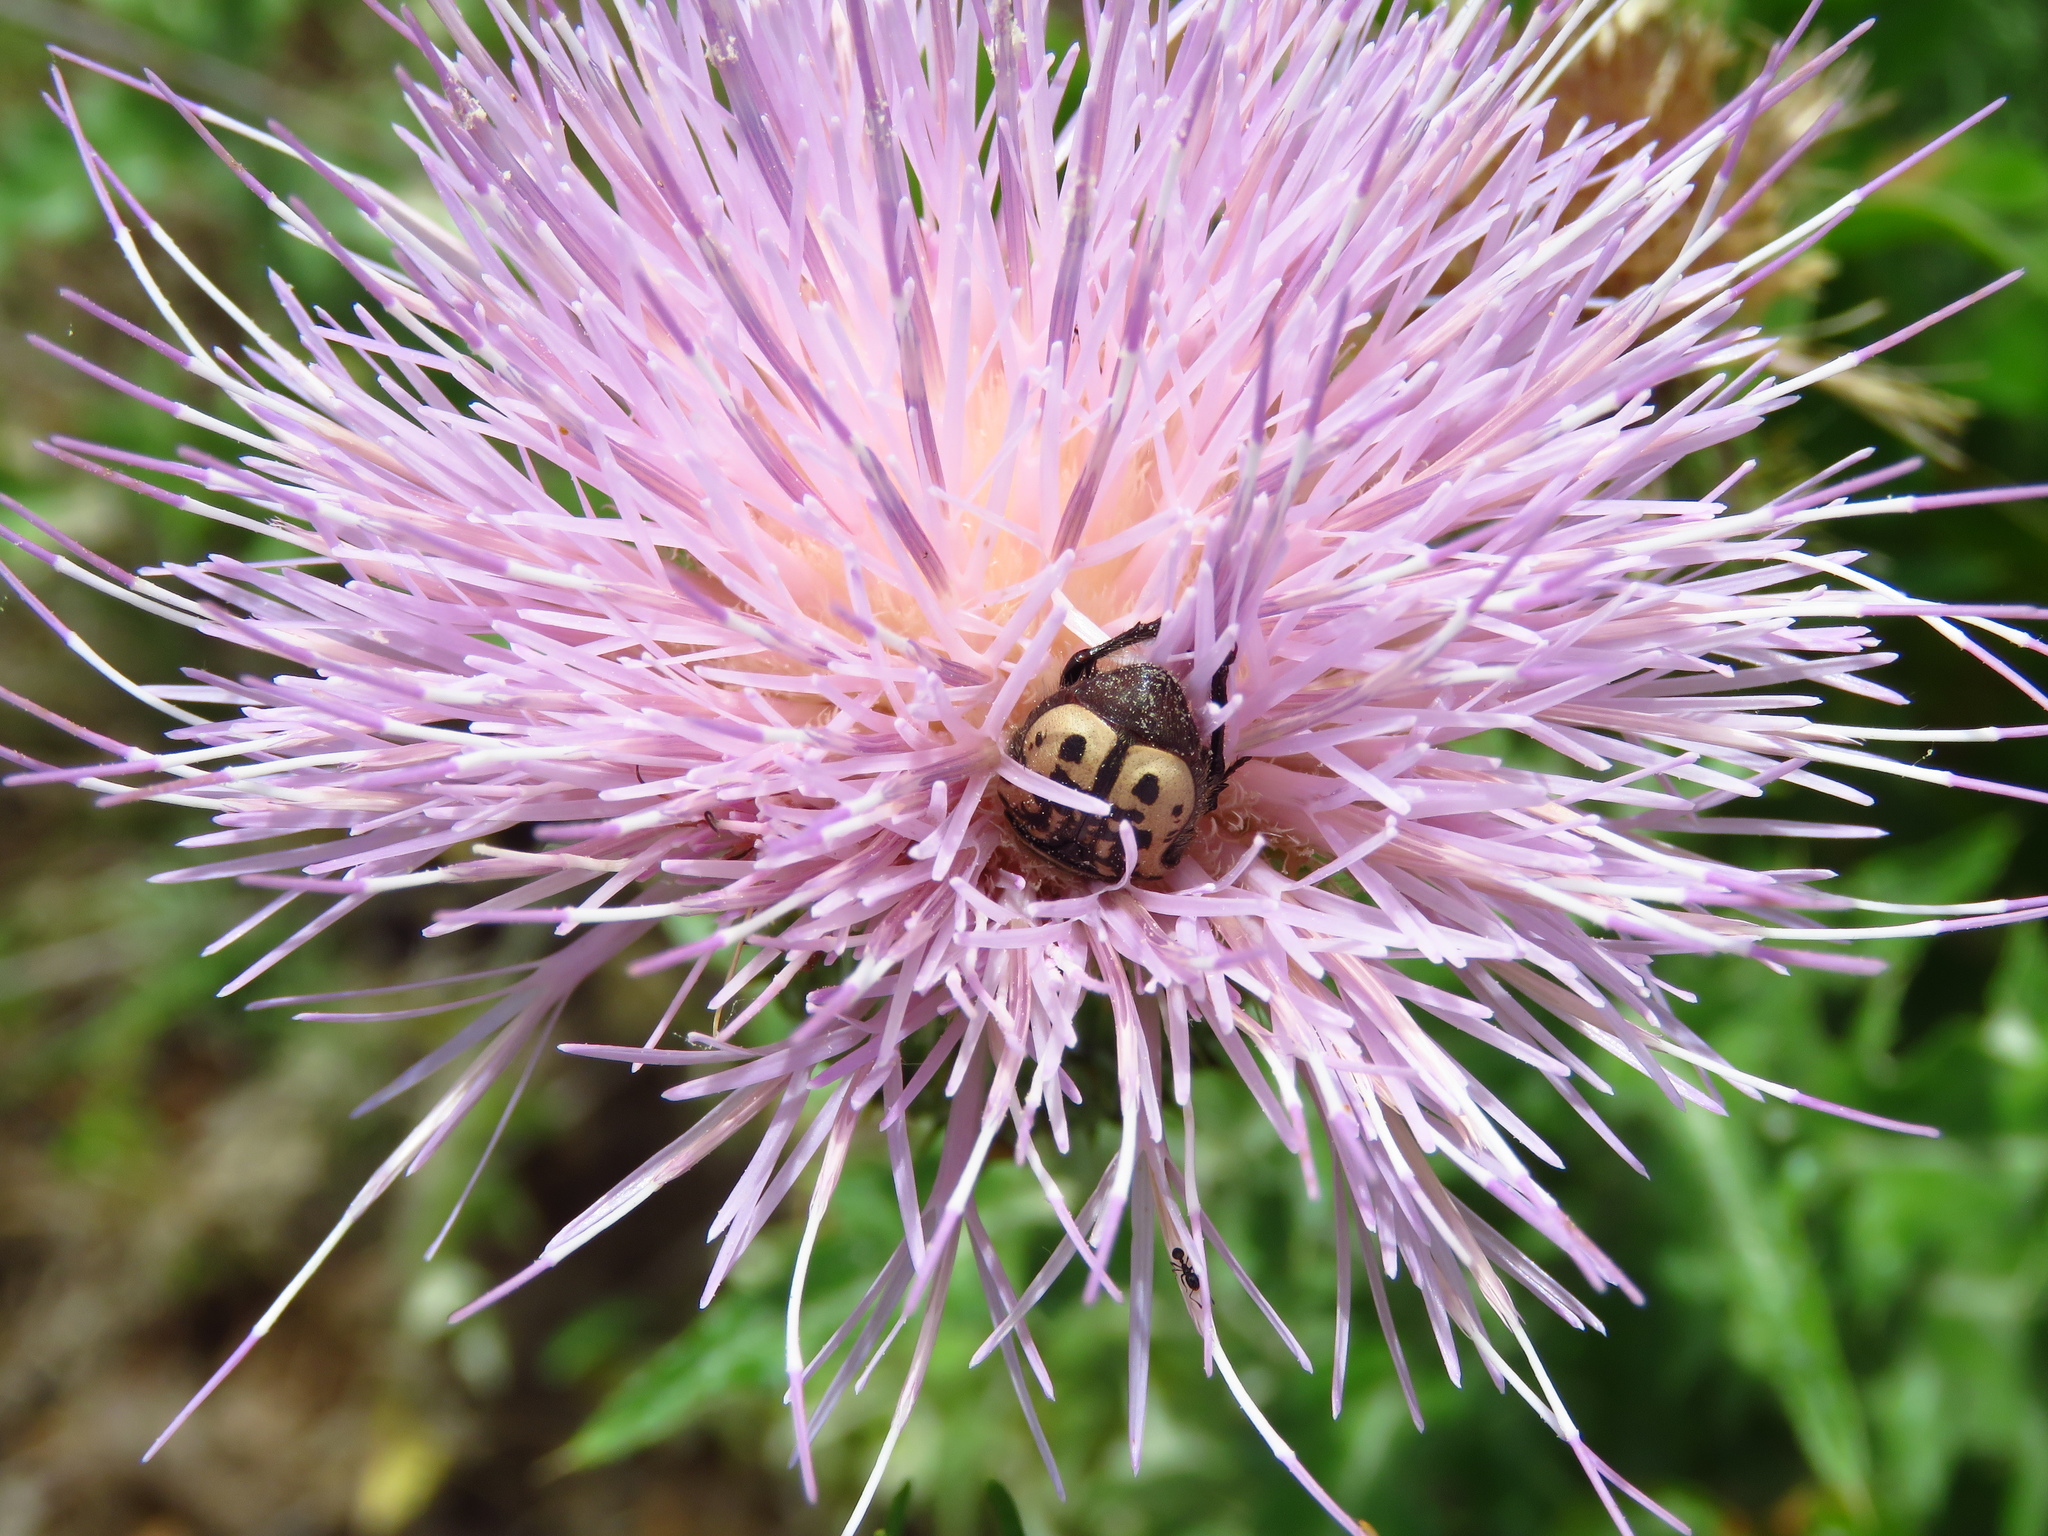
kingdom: Animalia
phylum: Arthropoda
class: Insecta
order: Coleoptera
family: Scarabaeidae
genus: Euphoria
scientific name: Euphoria kernii
